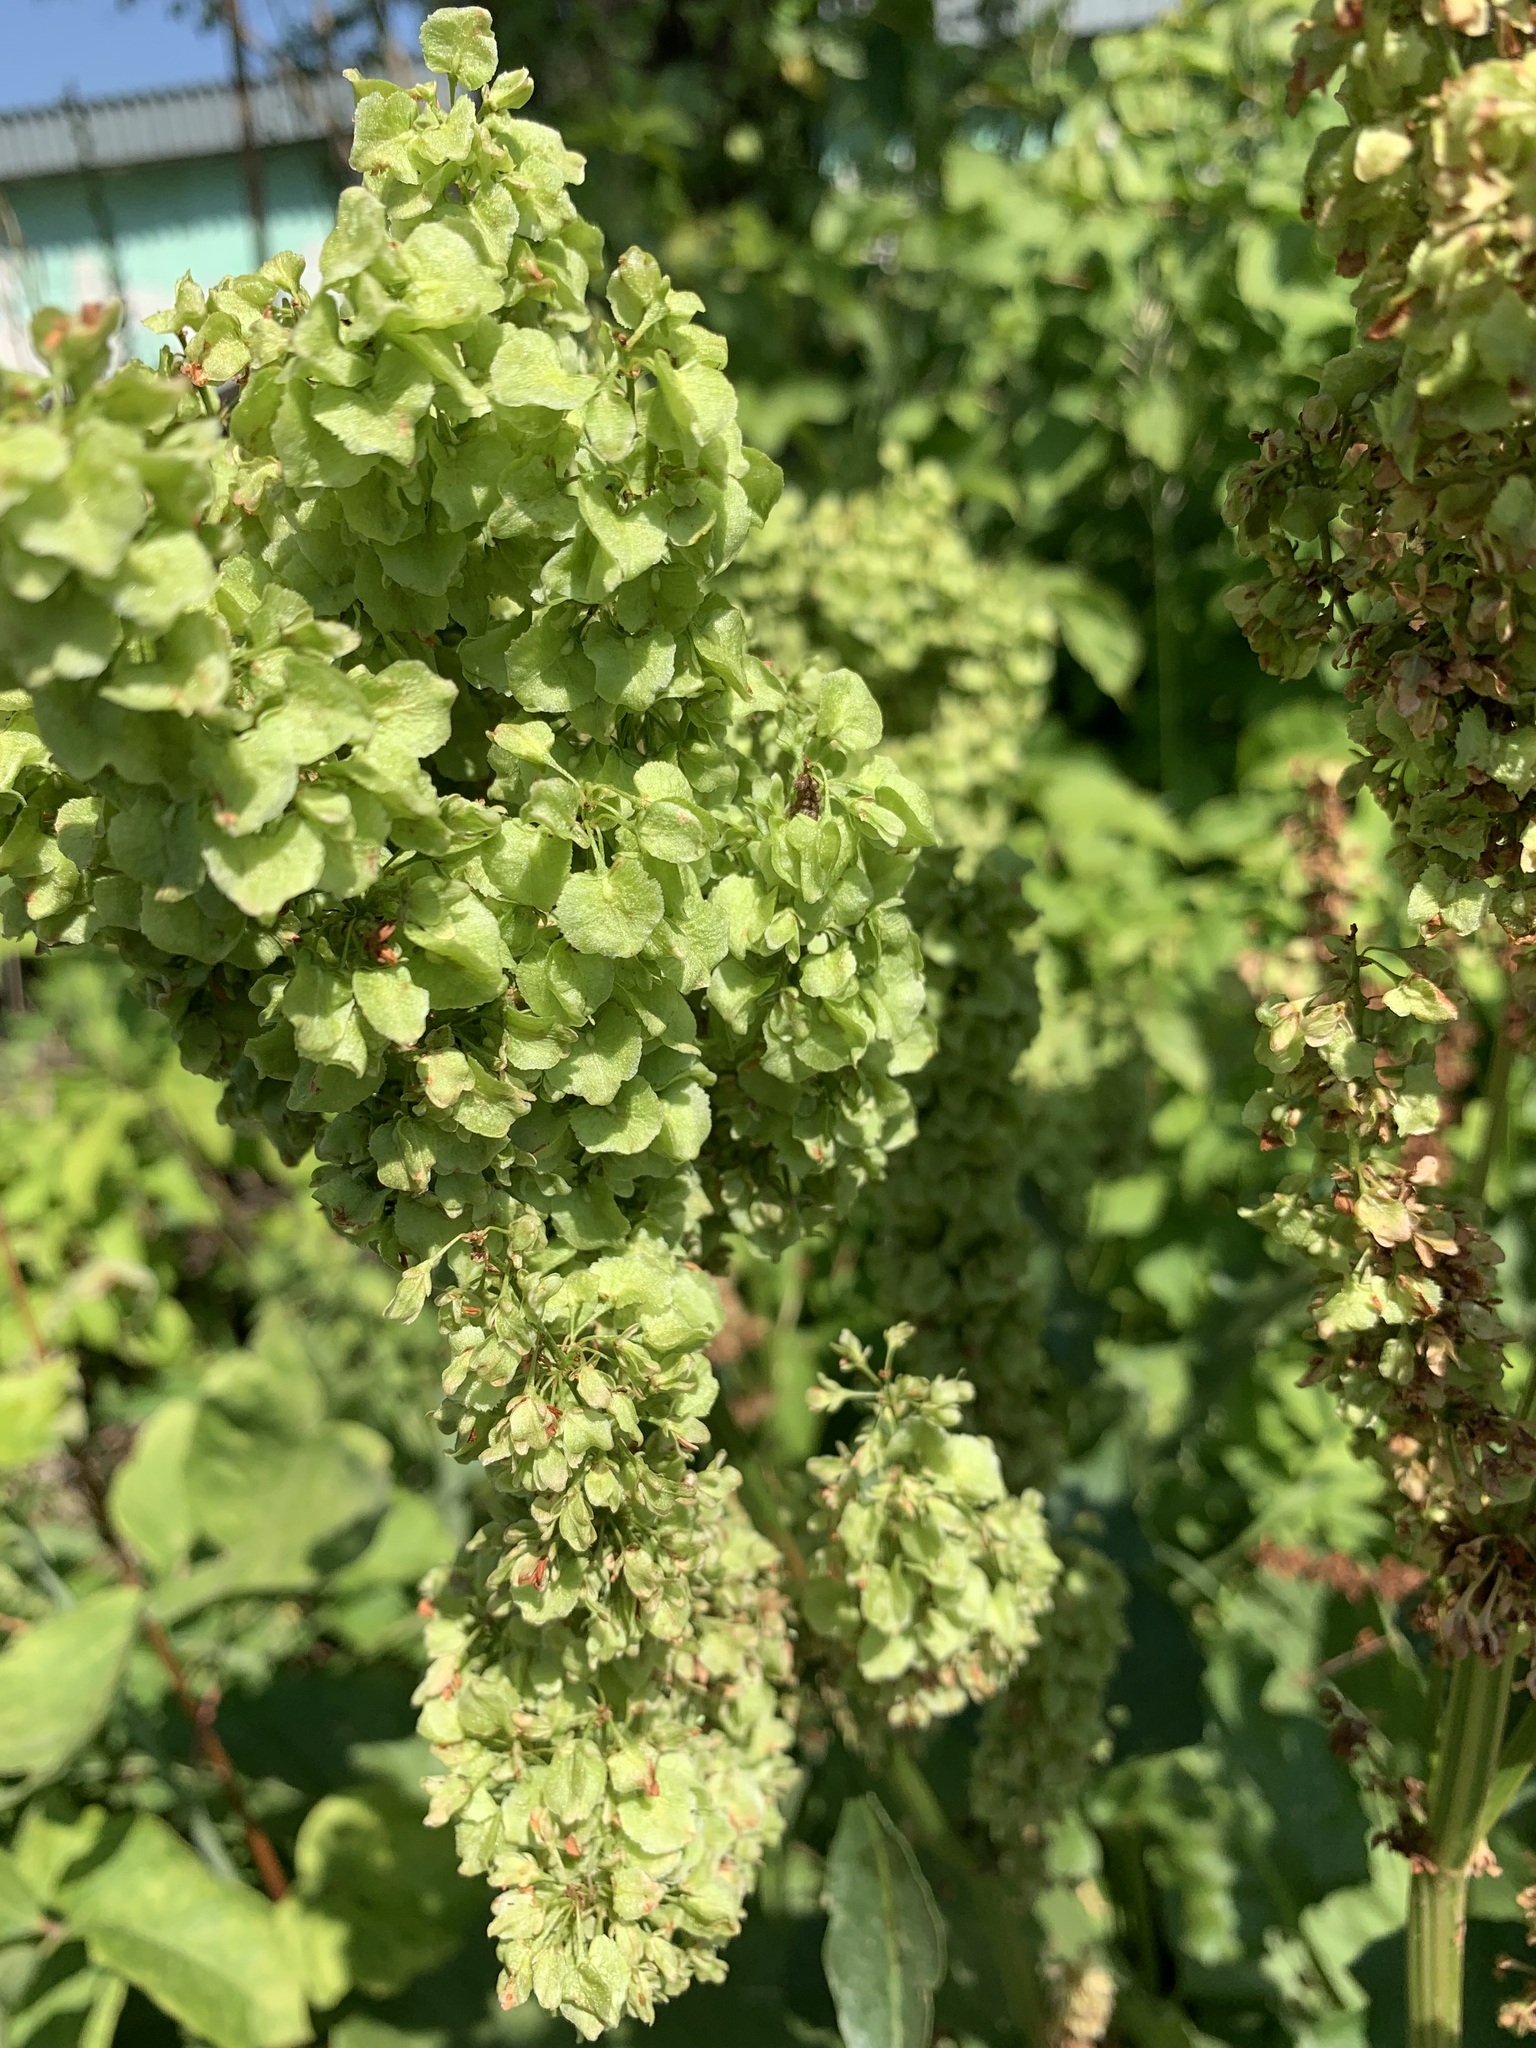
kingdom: Plantae
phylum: Tracheophyta
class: Magnoliopsida
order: Caryophyllales
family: Polygonaceae
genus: Rumex
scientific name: Rumex confertus
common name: Russian dock
